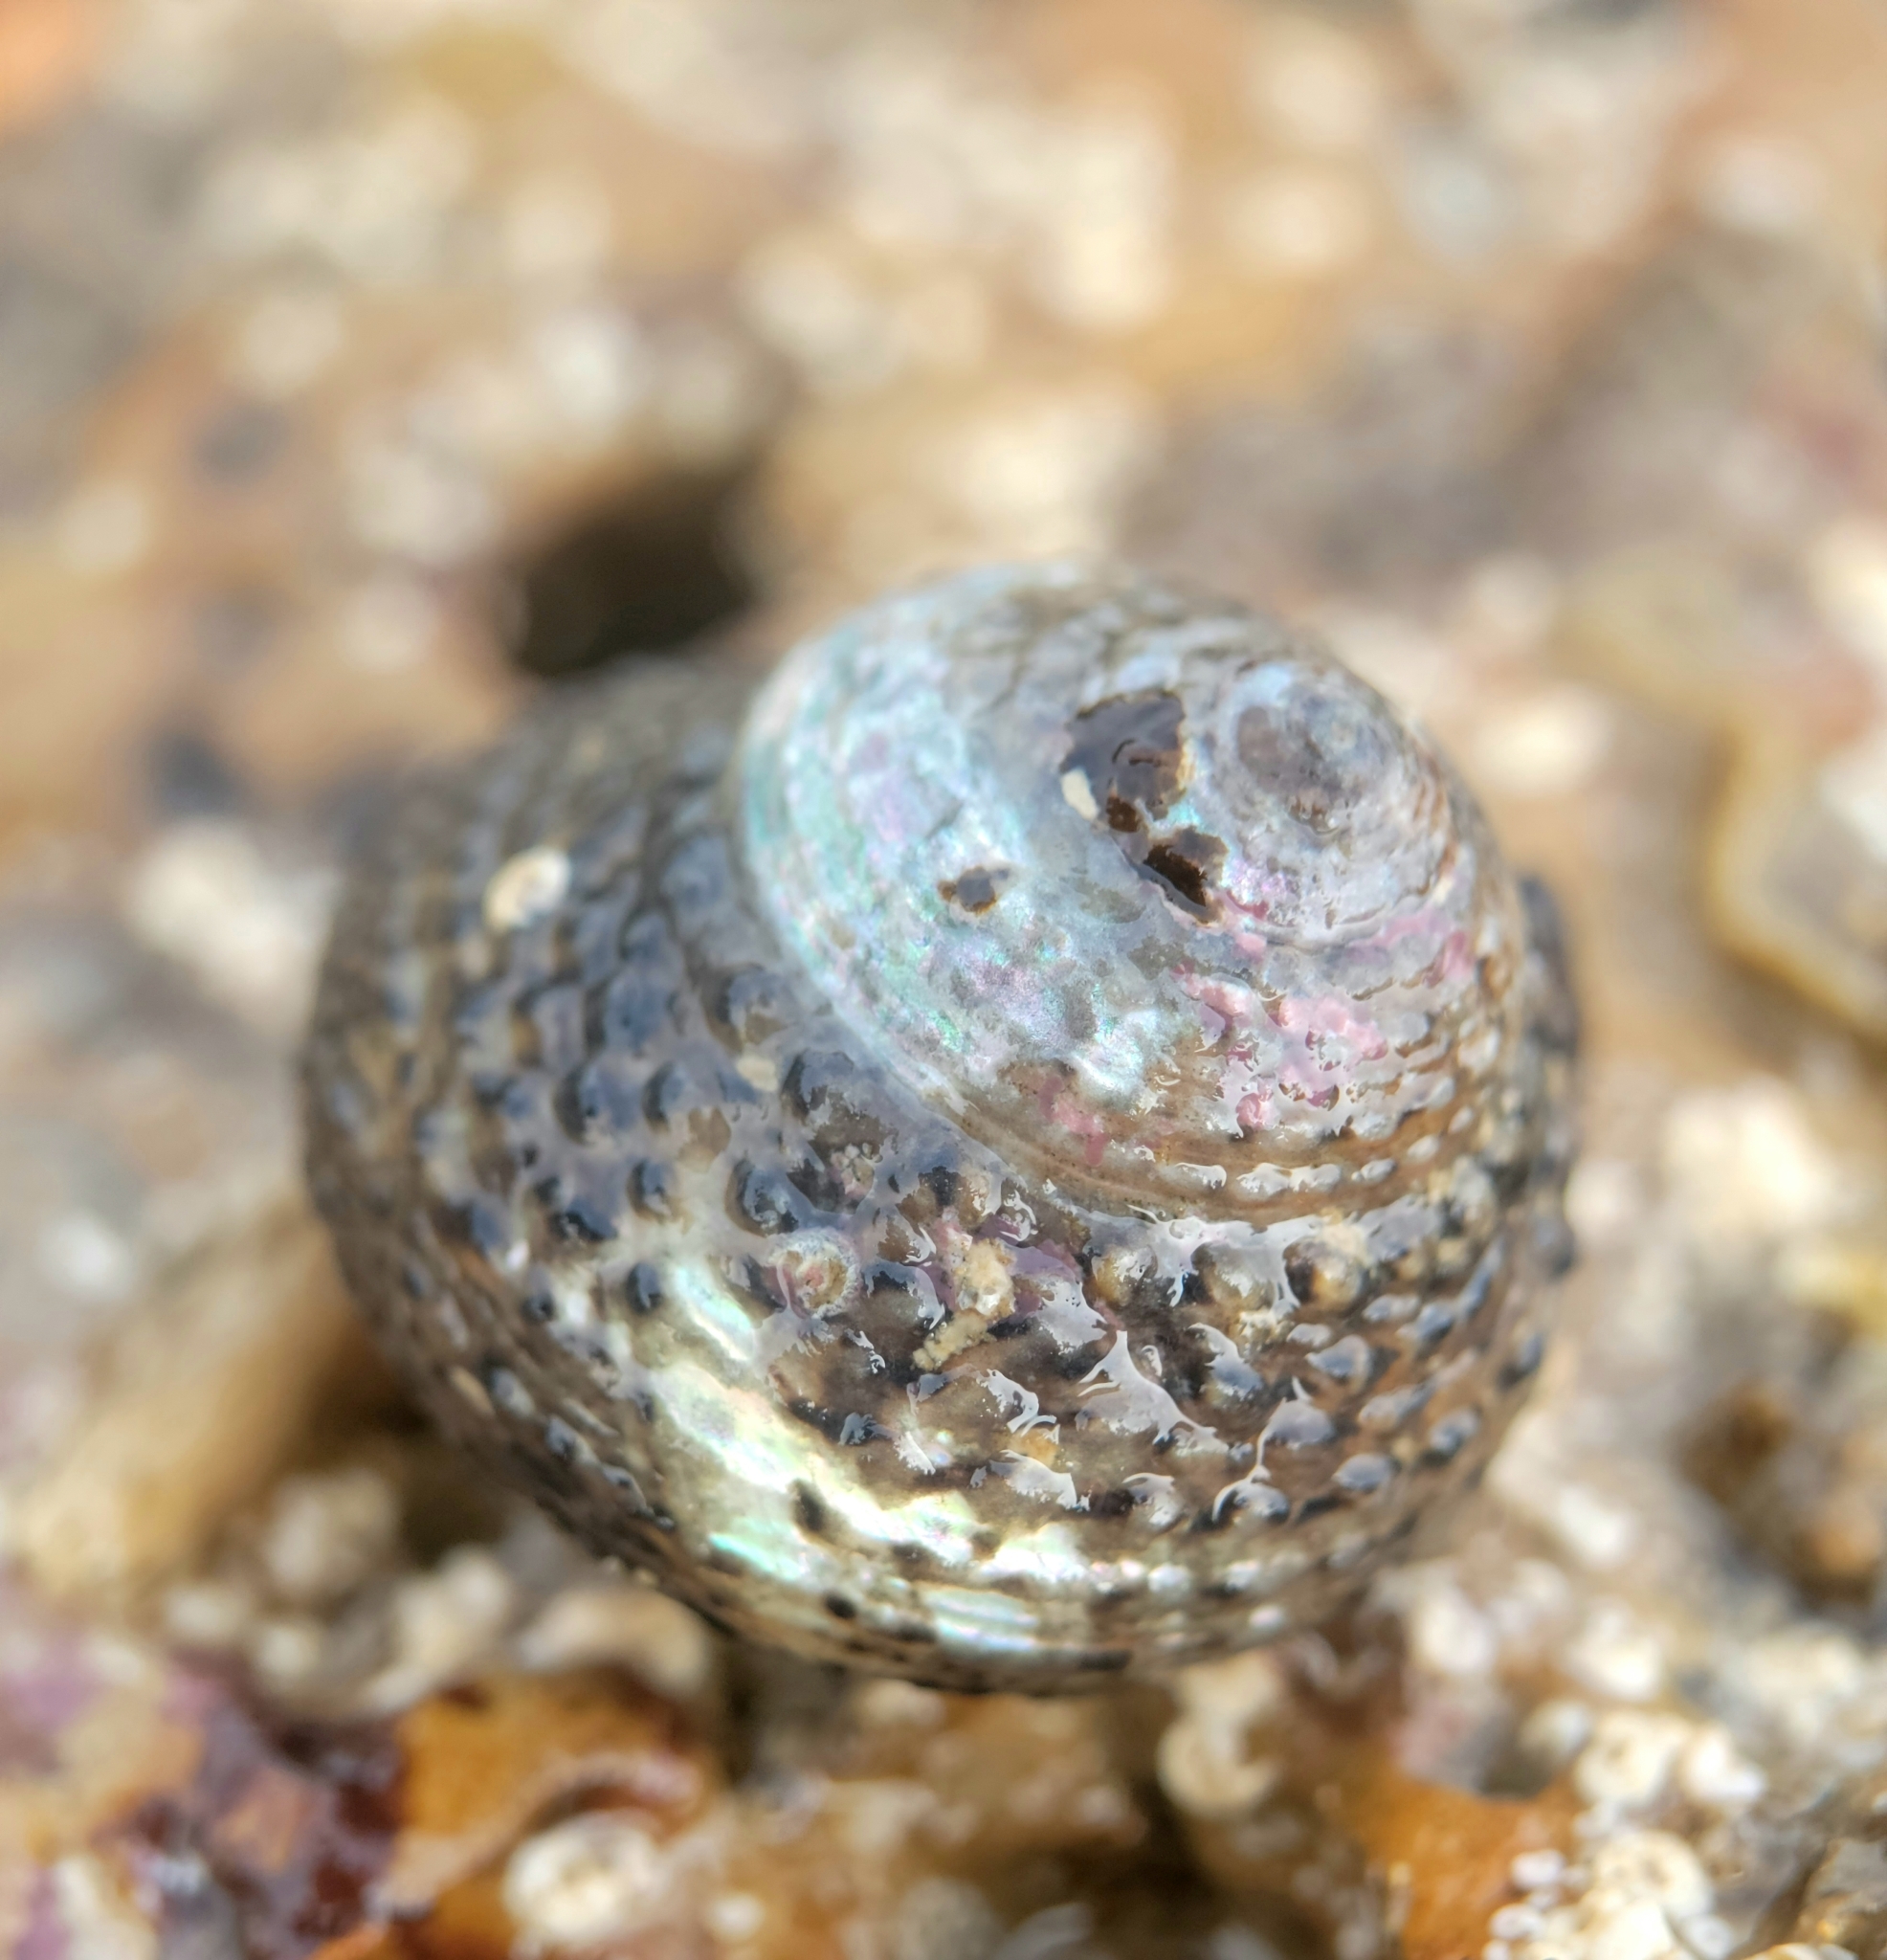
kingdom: Animalia
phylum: Mollusca
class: Gastropoda
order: Trochida
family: Tegulidae
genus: Tegula
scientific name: Tegula eiseni
